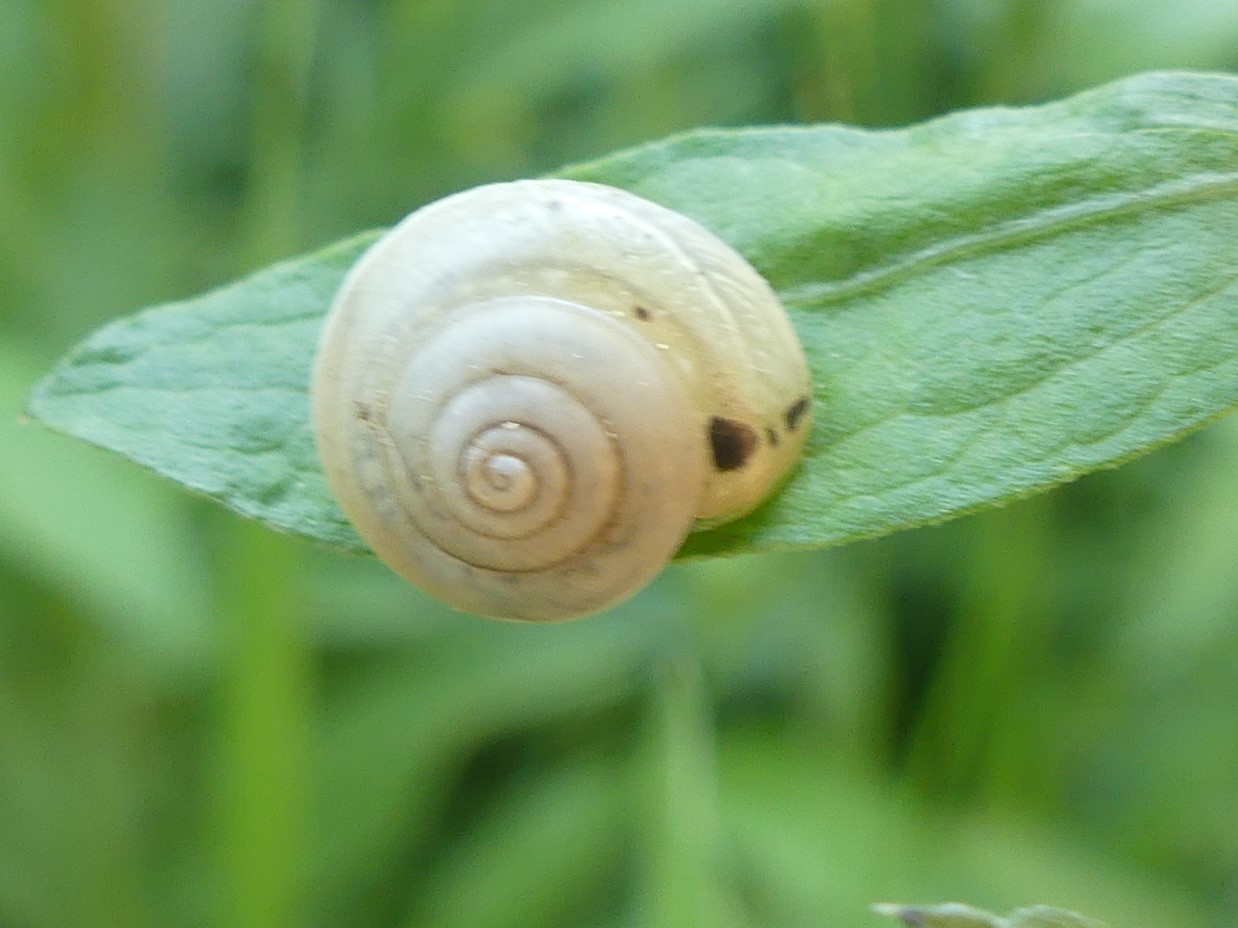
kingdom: Animalia
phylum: Mollusca
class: Gastropoda
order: Stylommatophora
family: Hygromiidae
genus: Hygromia
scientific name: Hygromia cinctella
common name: Girdled snail
